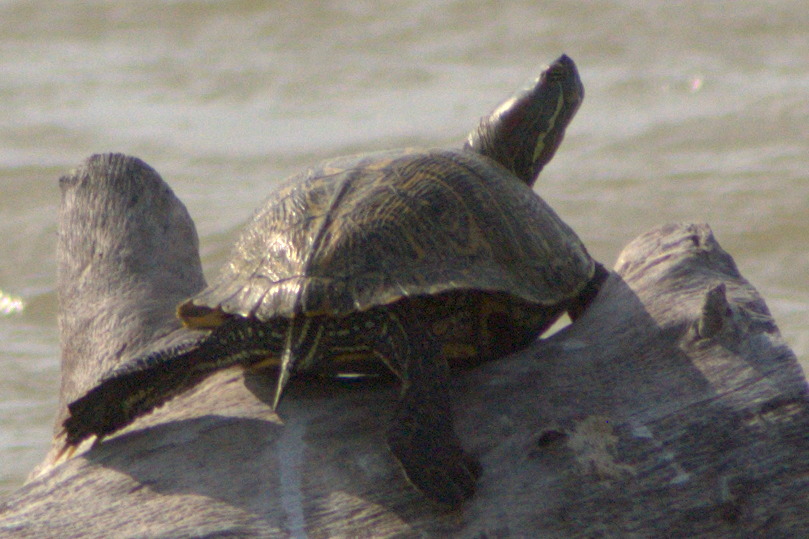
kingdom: Animalia
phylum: Chordata
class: Testudines
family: Emydidae
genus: Trachemys
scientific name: Trachemys scripta
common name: Slider
